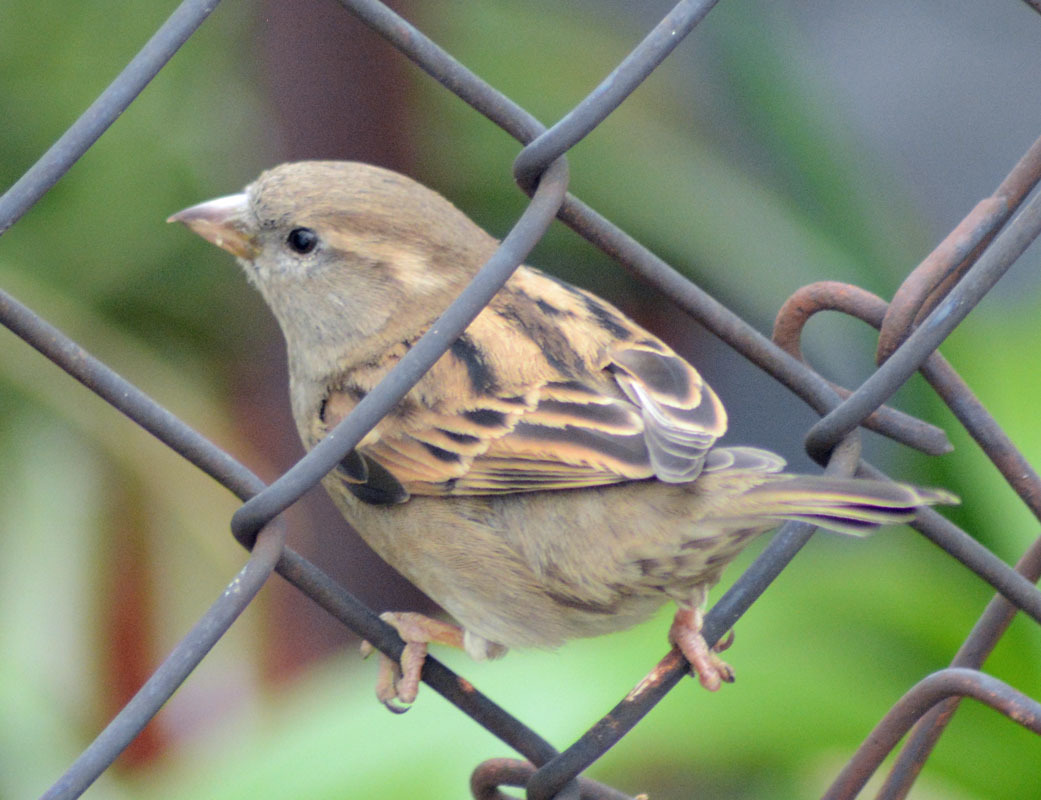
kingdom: Animalia
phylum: Chordata
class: Aves
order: Passeriformes
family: Passeridae
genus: Passer
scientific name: Passer domesticus
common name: House sparrow
